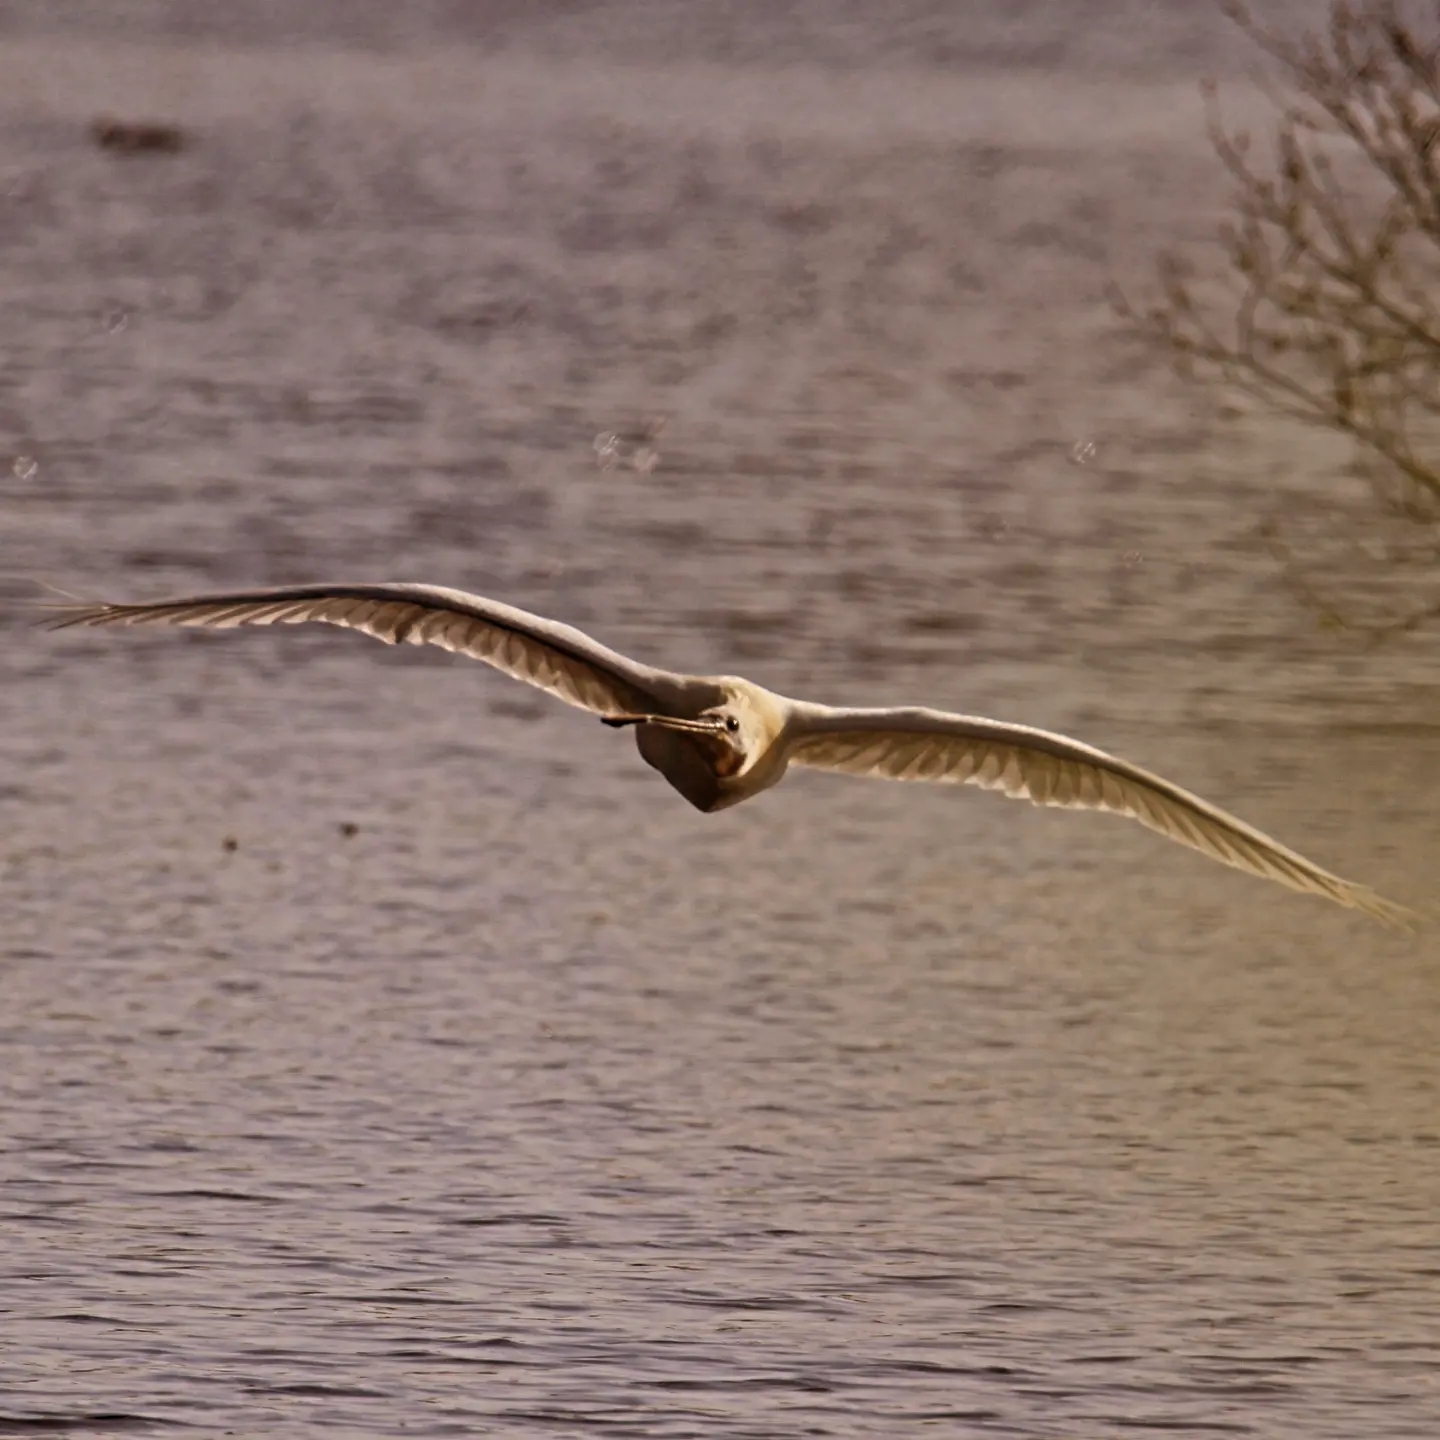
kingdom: Animalia
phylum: Chordata
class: Aves
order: Pelecaniformes
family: Threskiornithidae
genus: Platalea
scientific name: Platalea leucorodia
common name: Eurasian spoonbill
